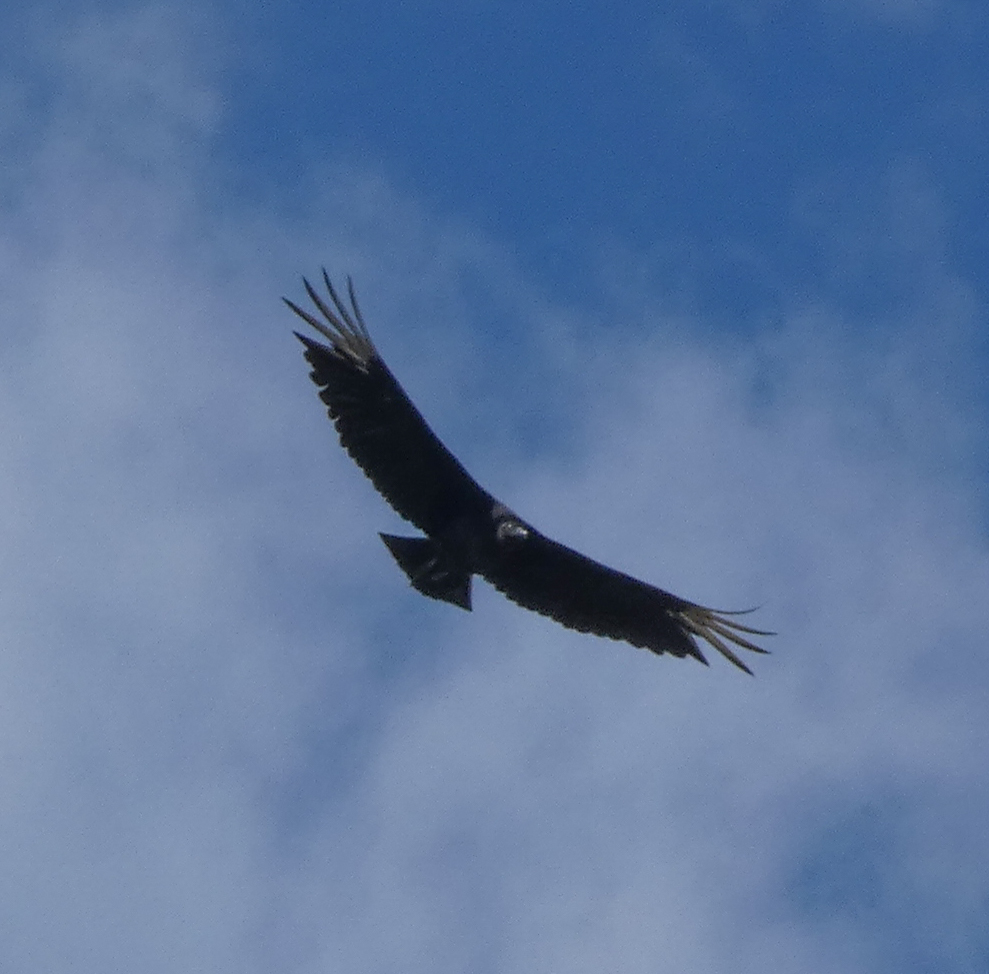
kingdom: Animalia
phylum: Chordata
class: Aves
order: Accipitriformes
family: Cathartidae
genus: Coragyps
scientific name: Coragyps atratus
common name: Black vulture
